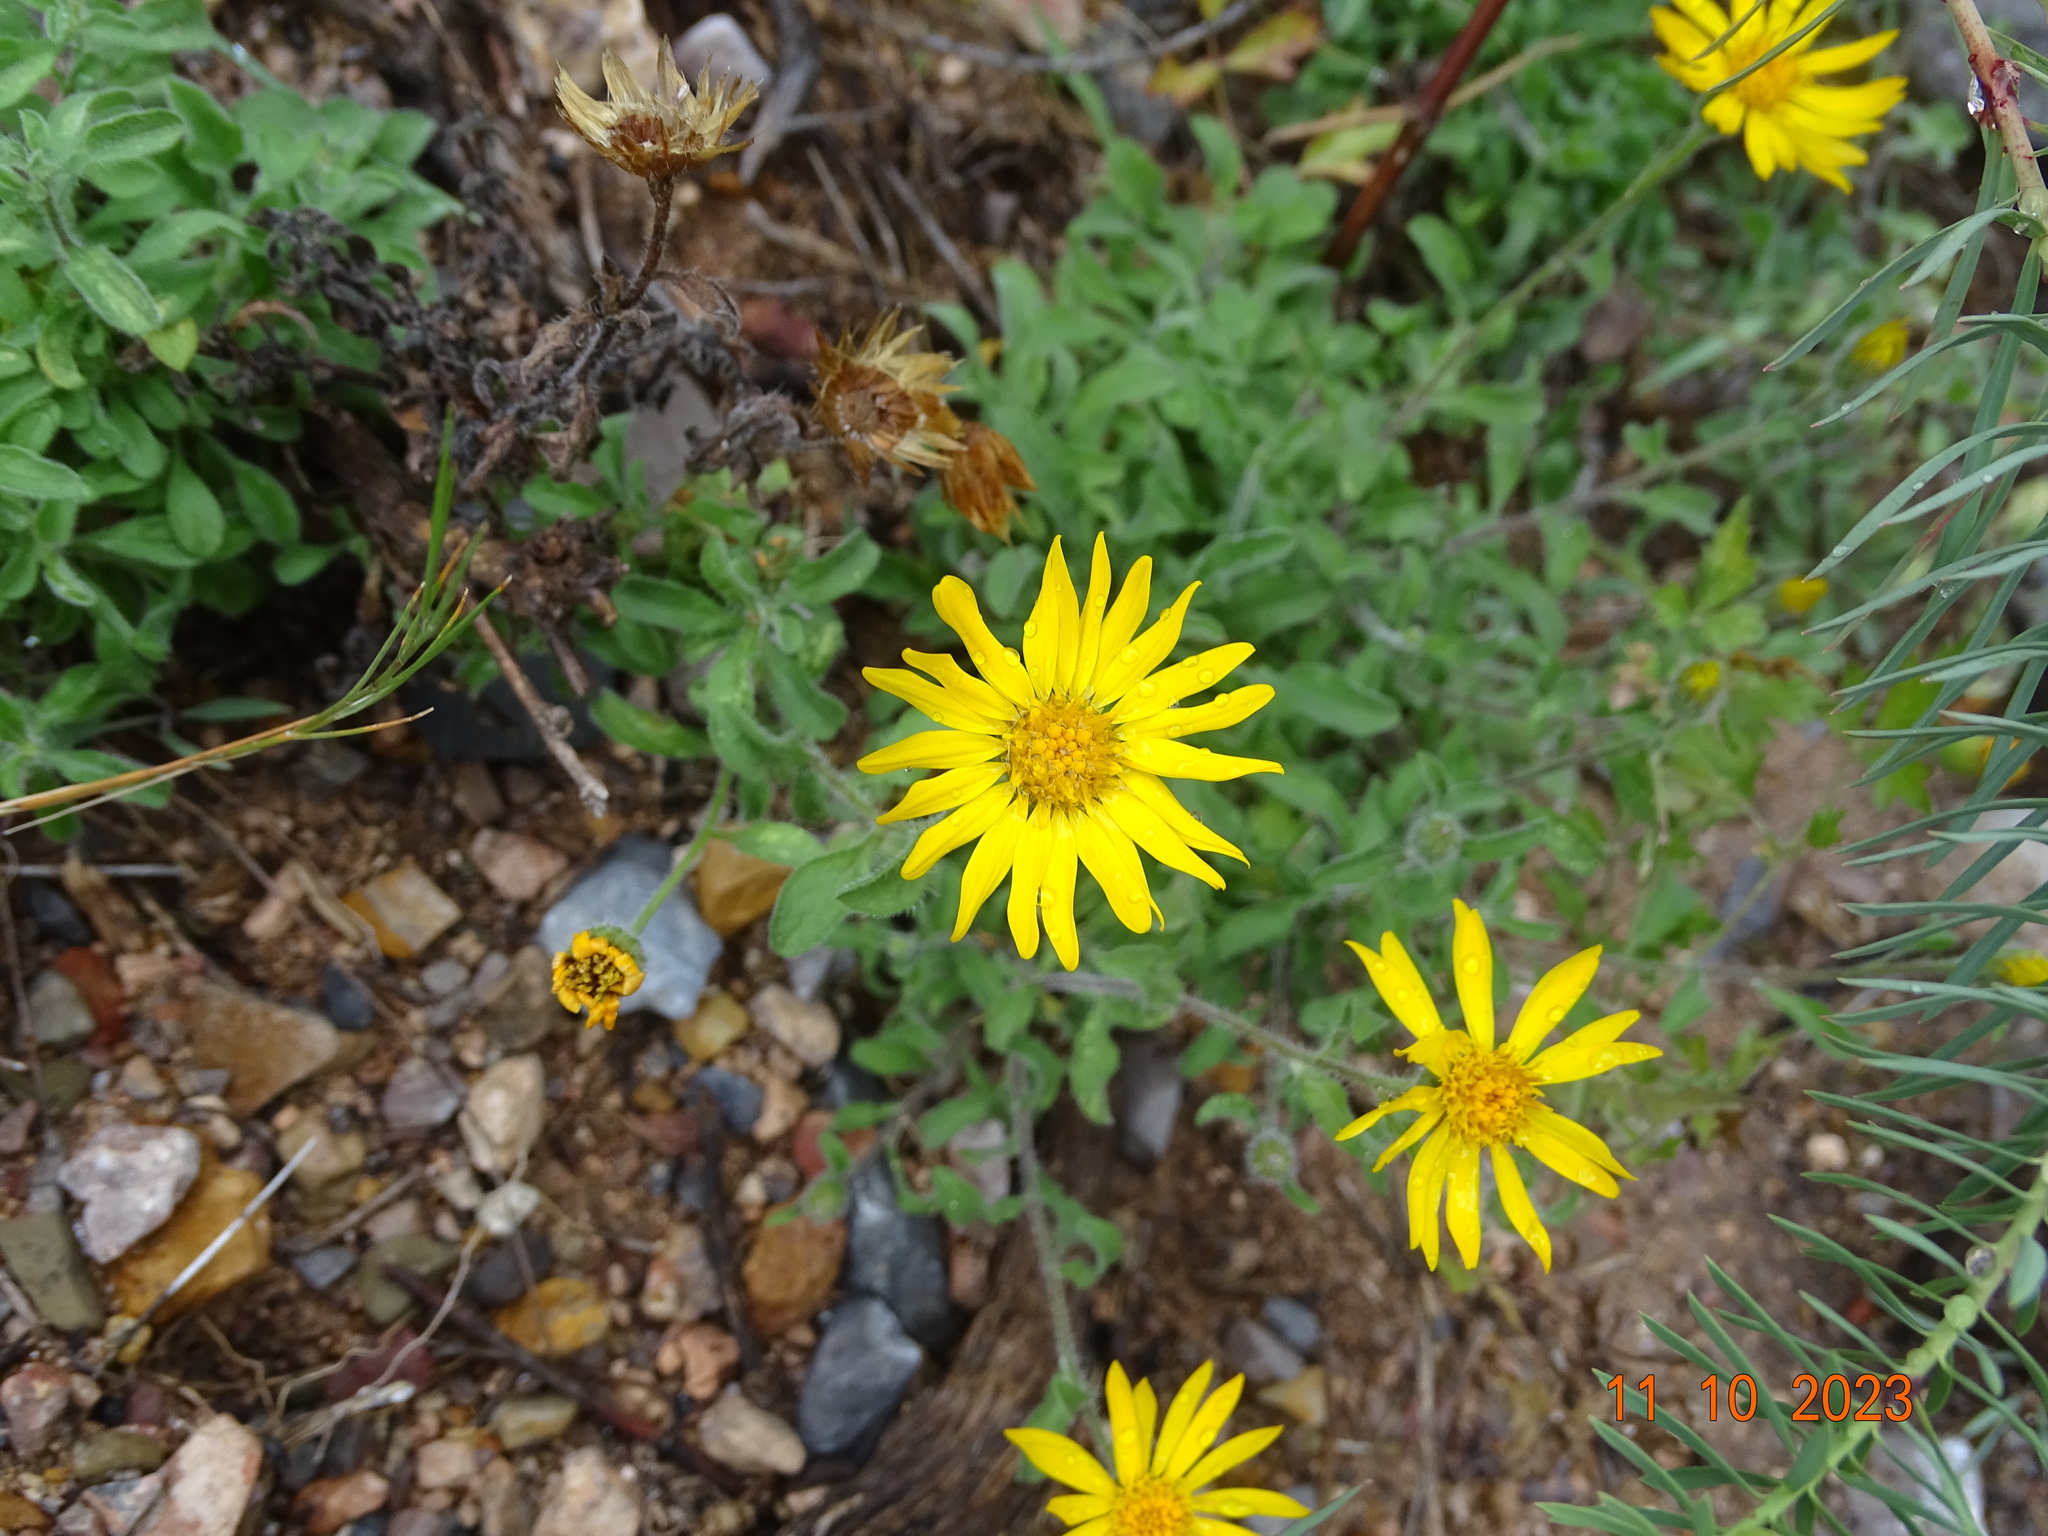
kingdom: Plantae
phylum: Tracheophyta
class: Magnoliopsida
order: Asterales
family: Asteraceae
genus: Heterotheca
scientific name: Heterotheca mucronata
